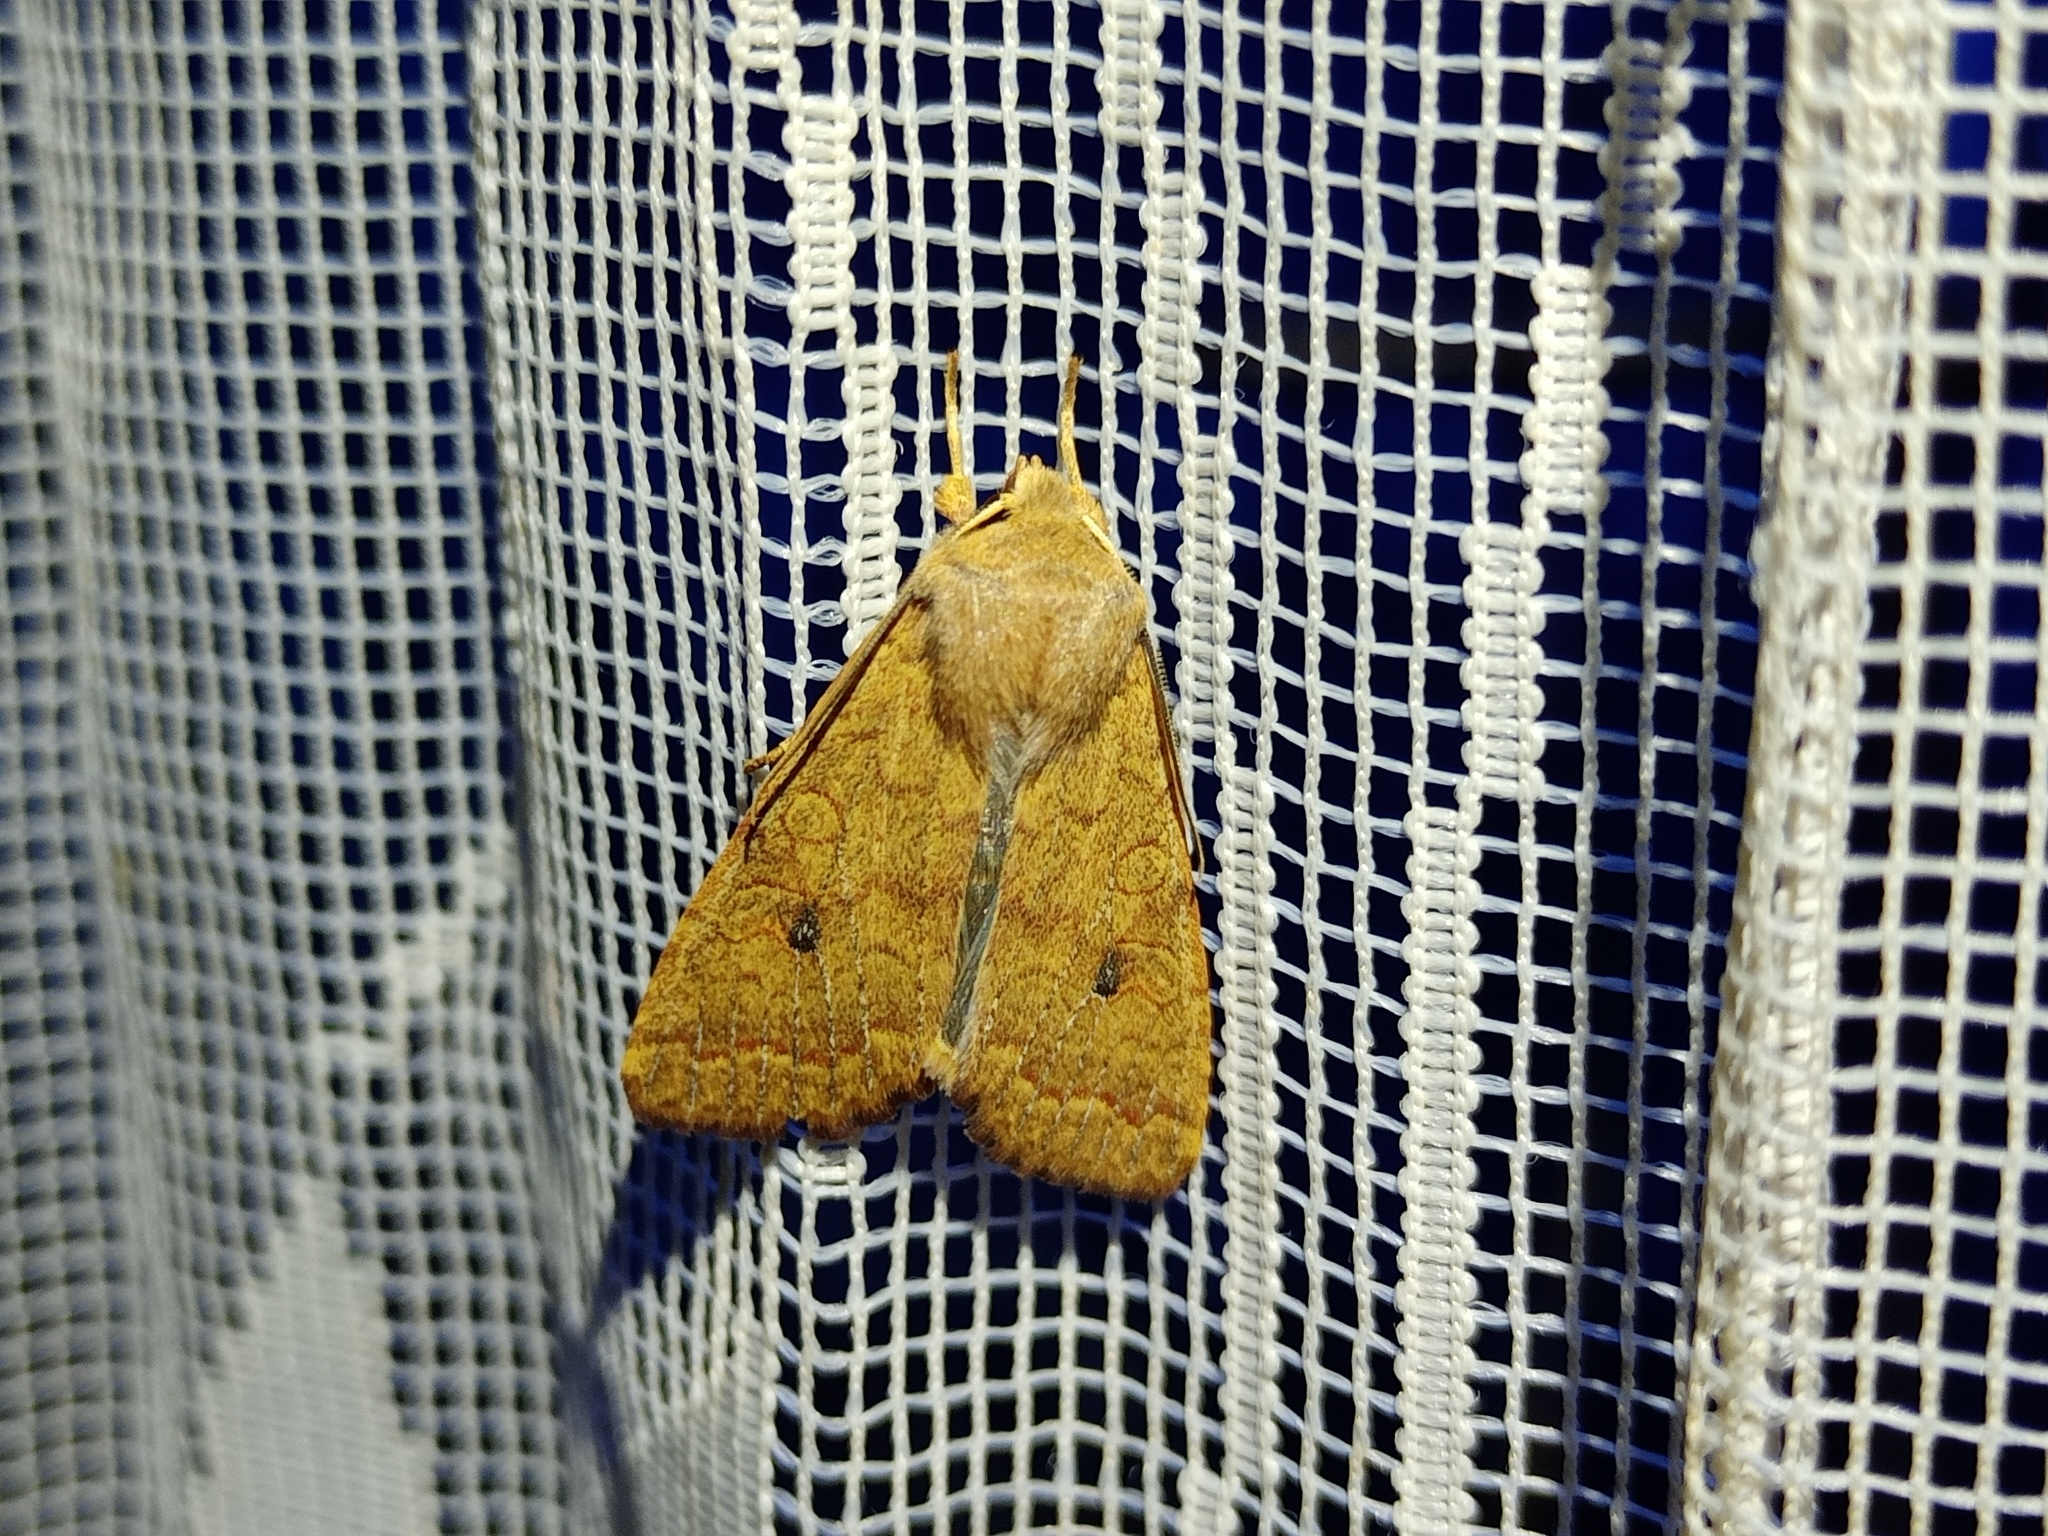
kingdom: Animalia
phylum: Arthropoda
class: Insecta
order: Lepidoptera
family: Noctuidae
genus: Sunira
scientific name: Sunira circellaris
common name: Brick
